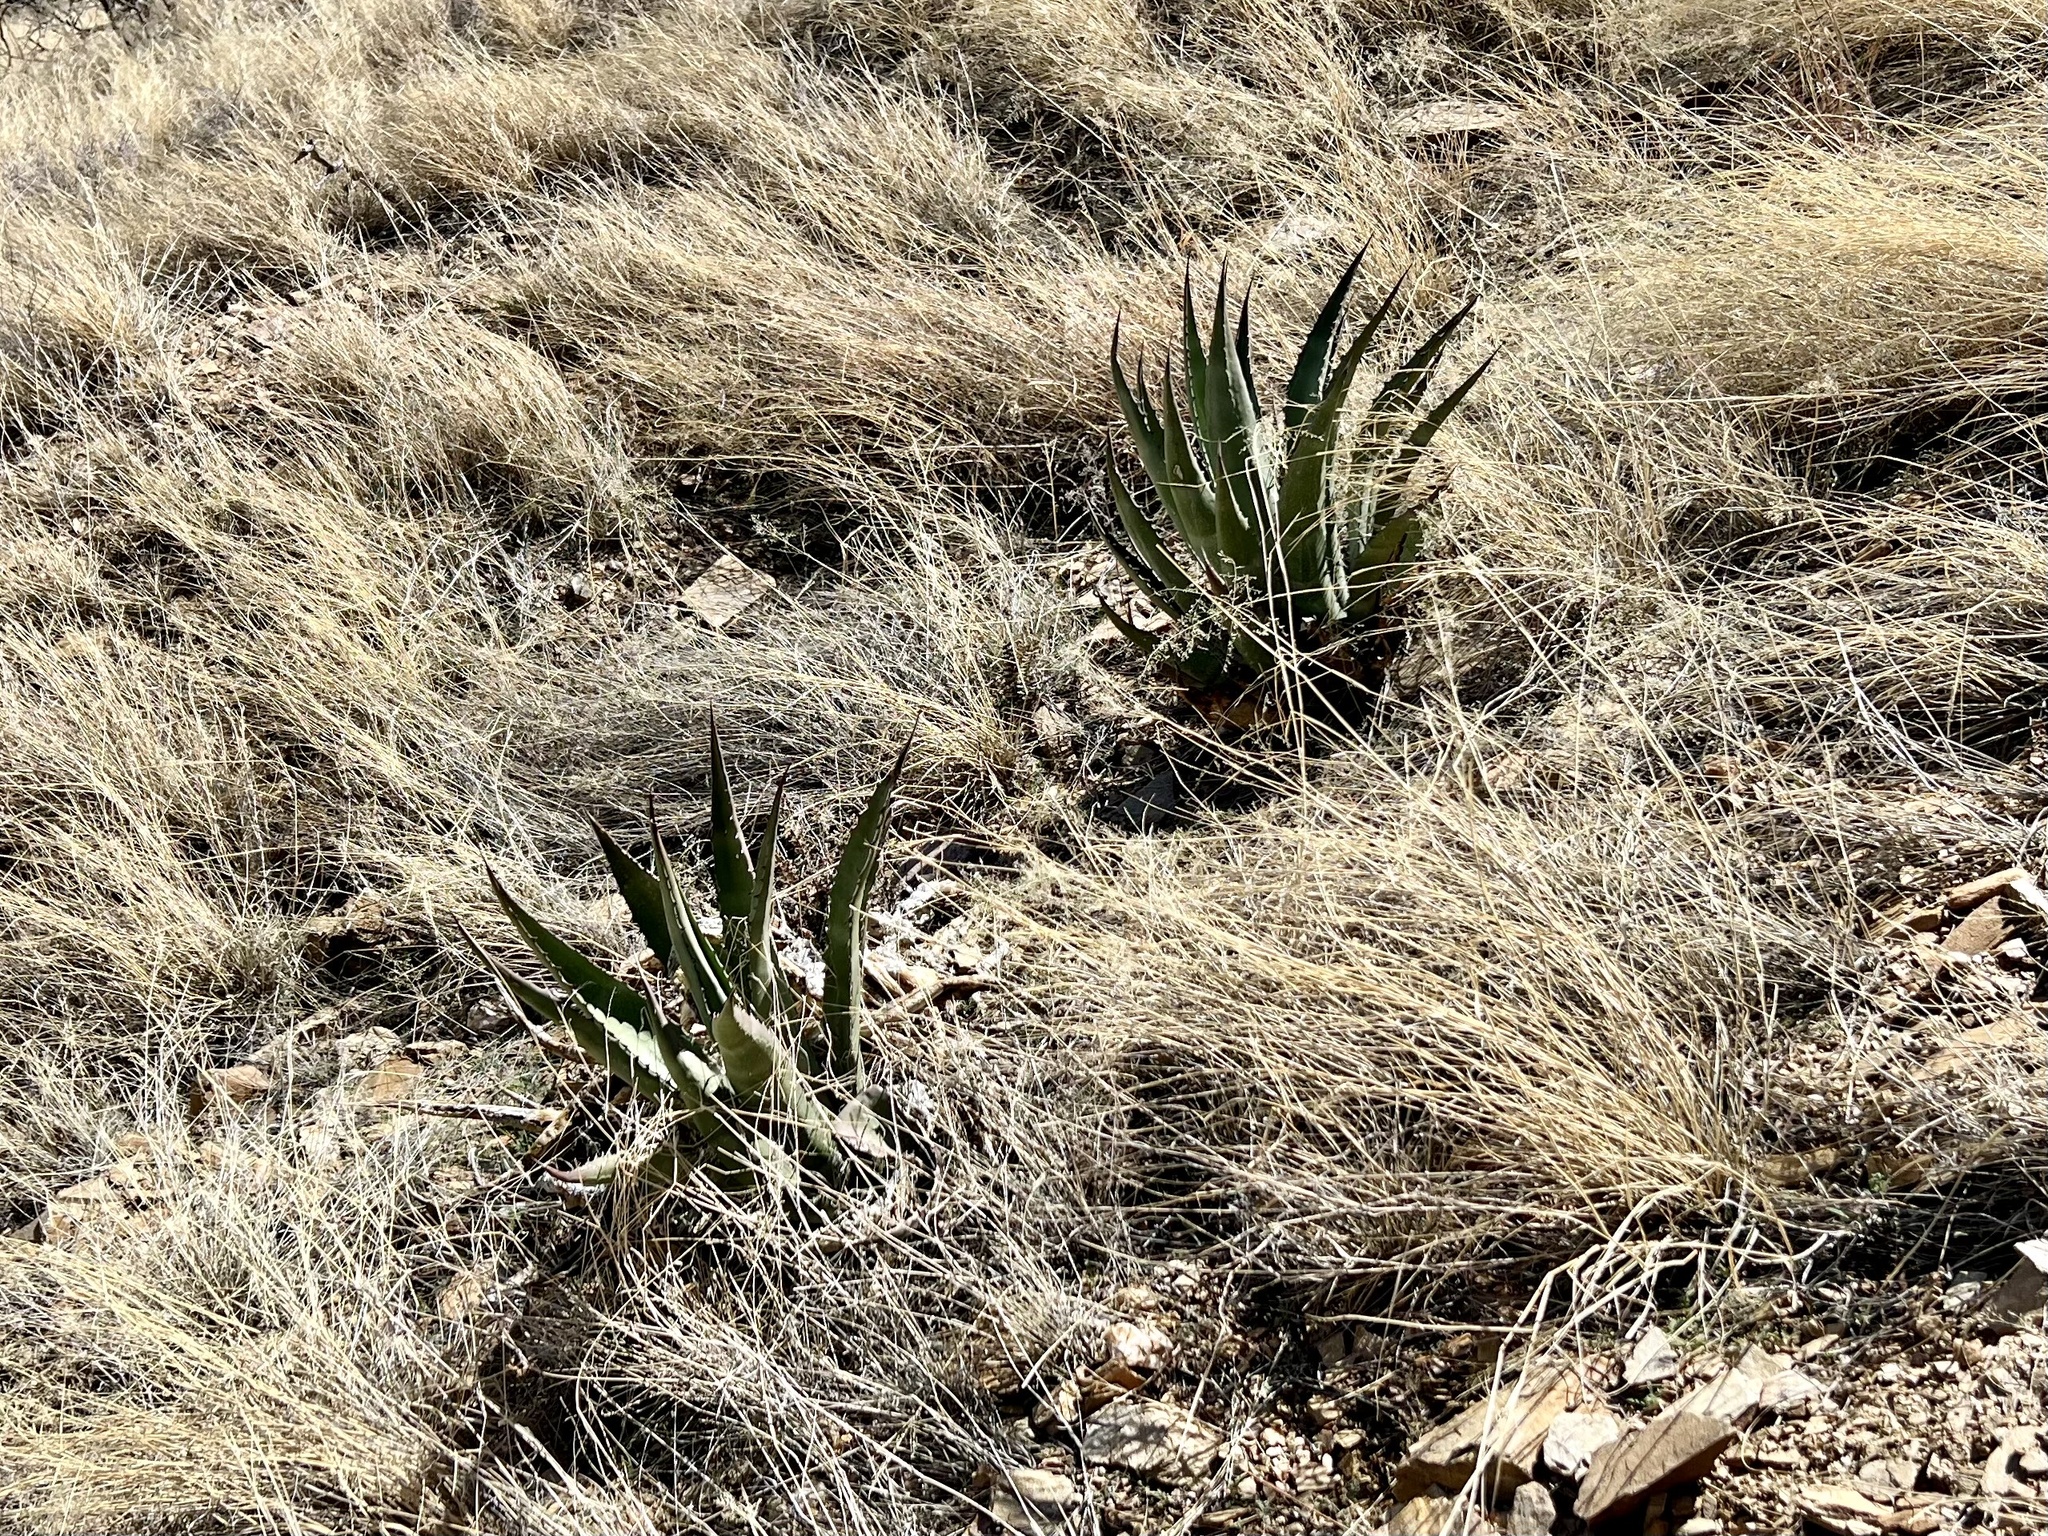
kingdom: Plantae
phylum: Tracheophyta
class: Liliopsida
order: Asparagales
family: Asparagaceae
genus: Agave
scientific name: Agave palmeri
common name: Palmer agave
